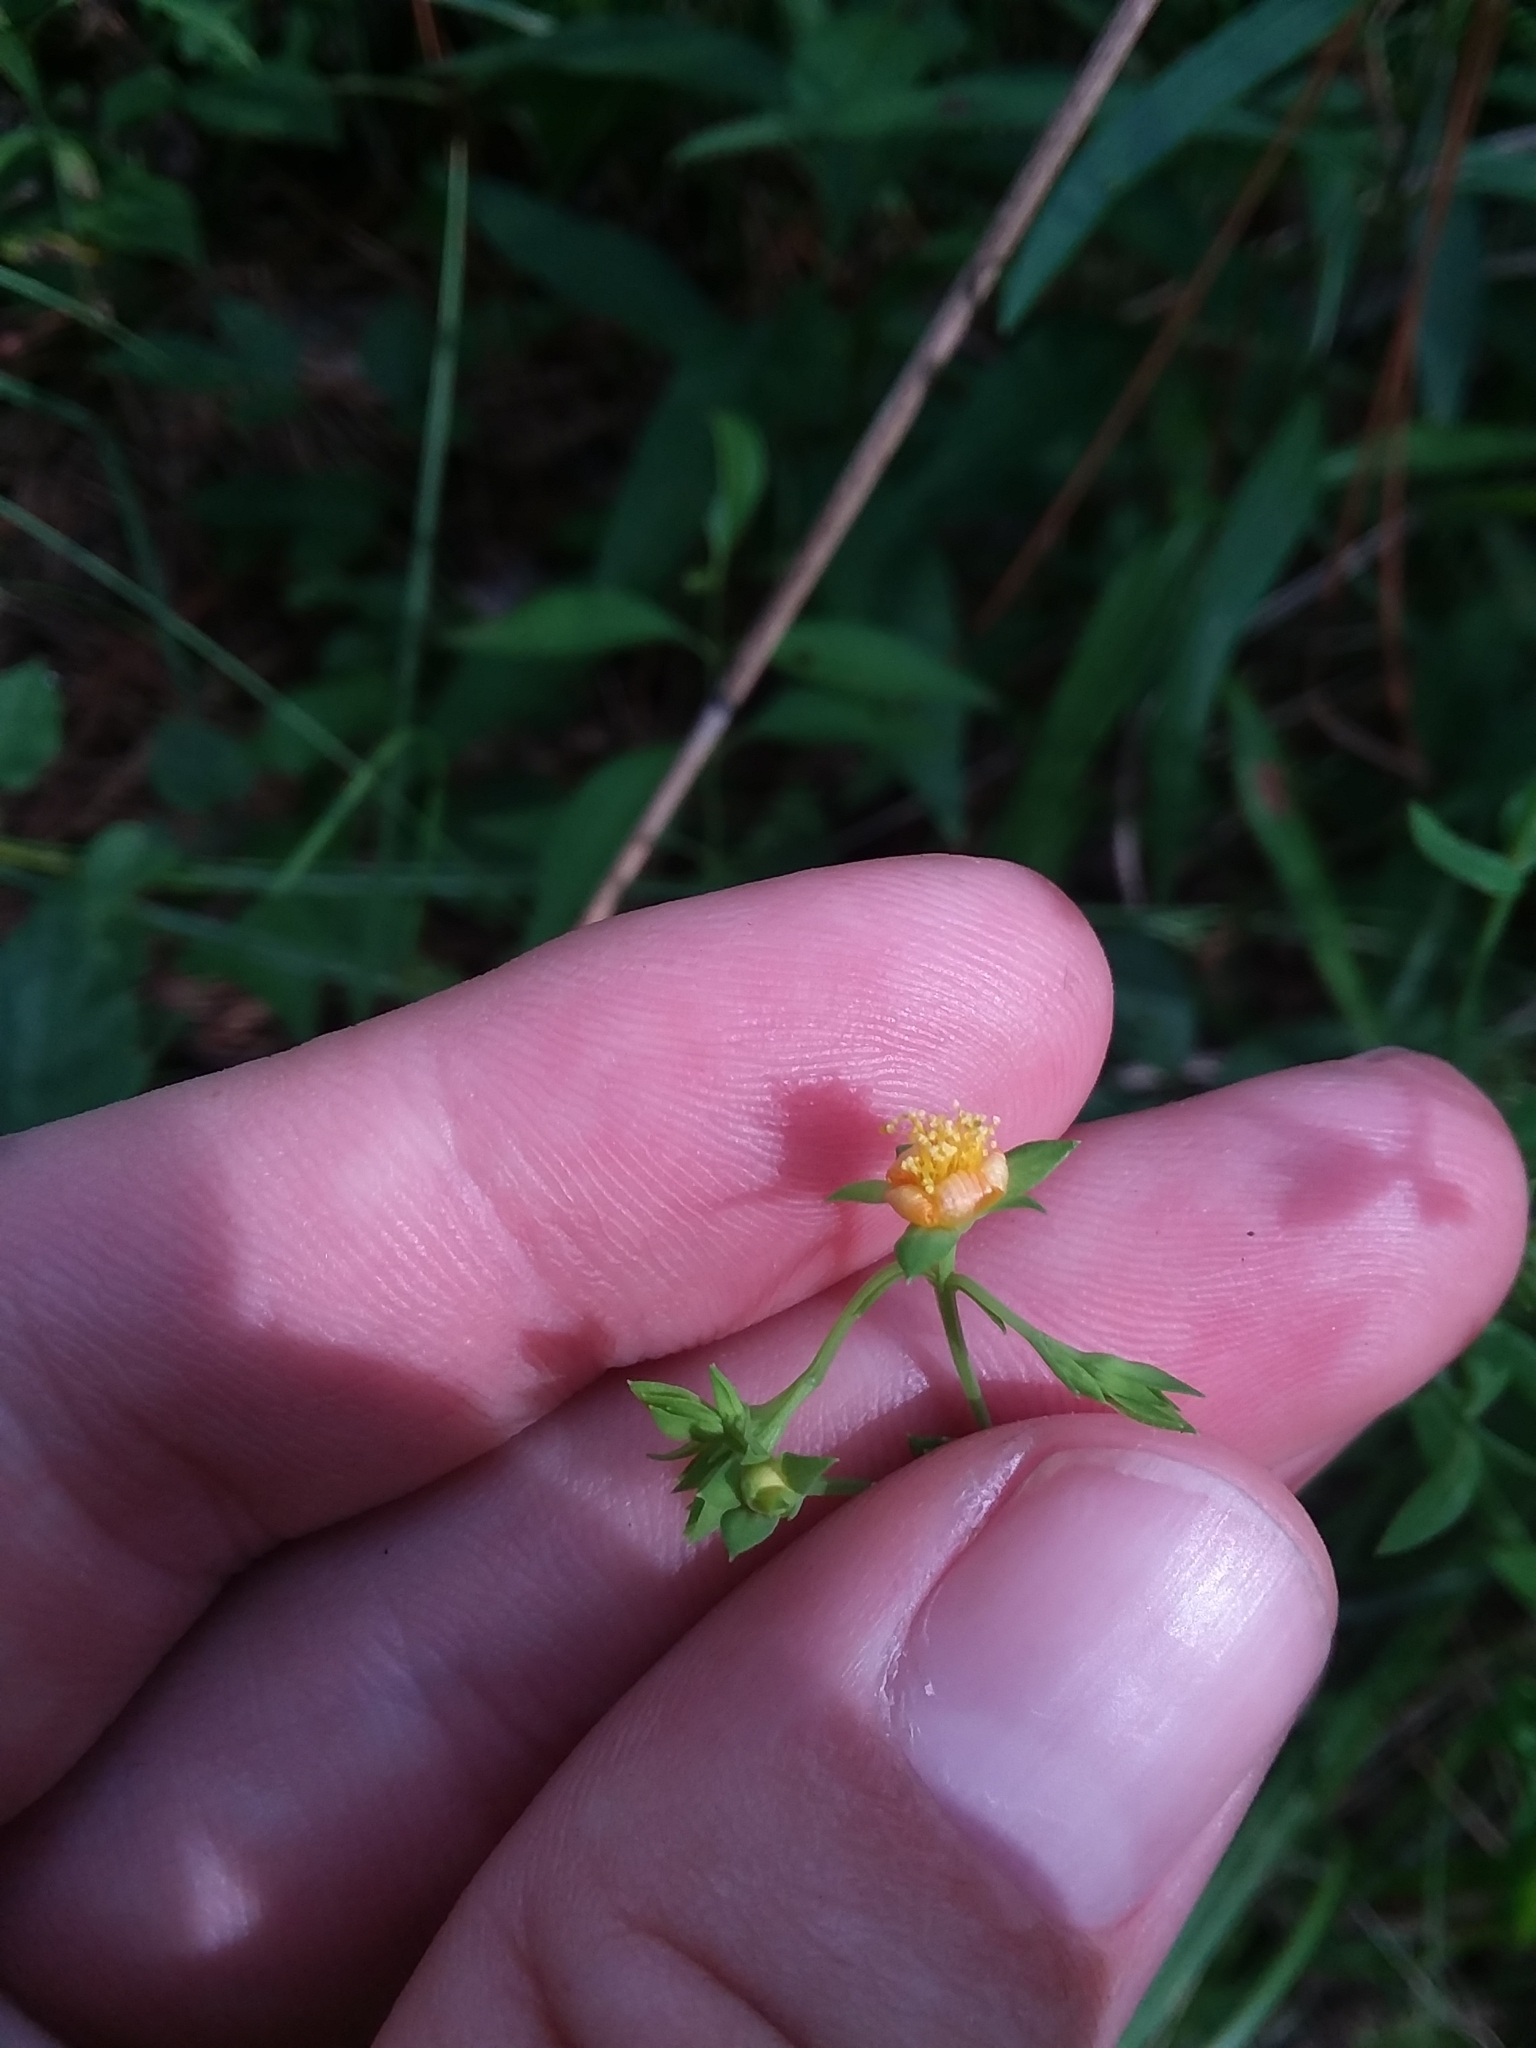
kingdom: Plantae
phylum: Tracheophyta
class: Magnoliopsida
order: Malpighiales
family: Hypericaceae
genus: Hypericum
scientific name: Hypericum virgatum
